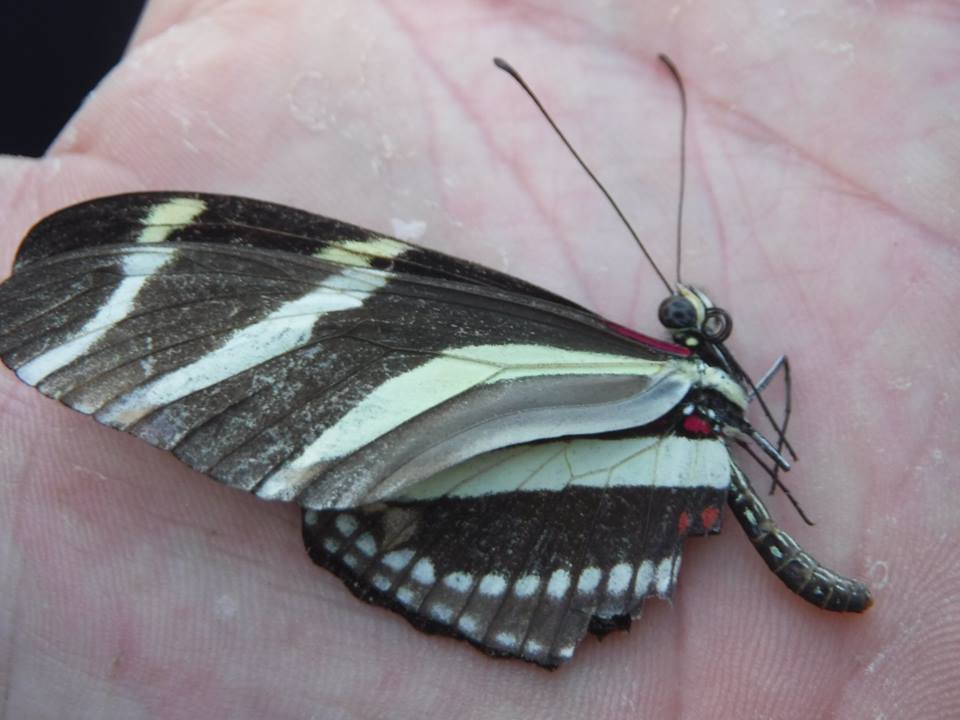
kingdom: Animalia
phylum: Arthropoda
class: Insecta
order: Lepidoptera
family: Nymphalidae
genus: Heliconius
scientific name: Heliconius charithonia
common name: Zebra long wing
